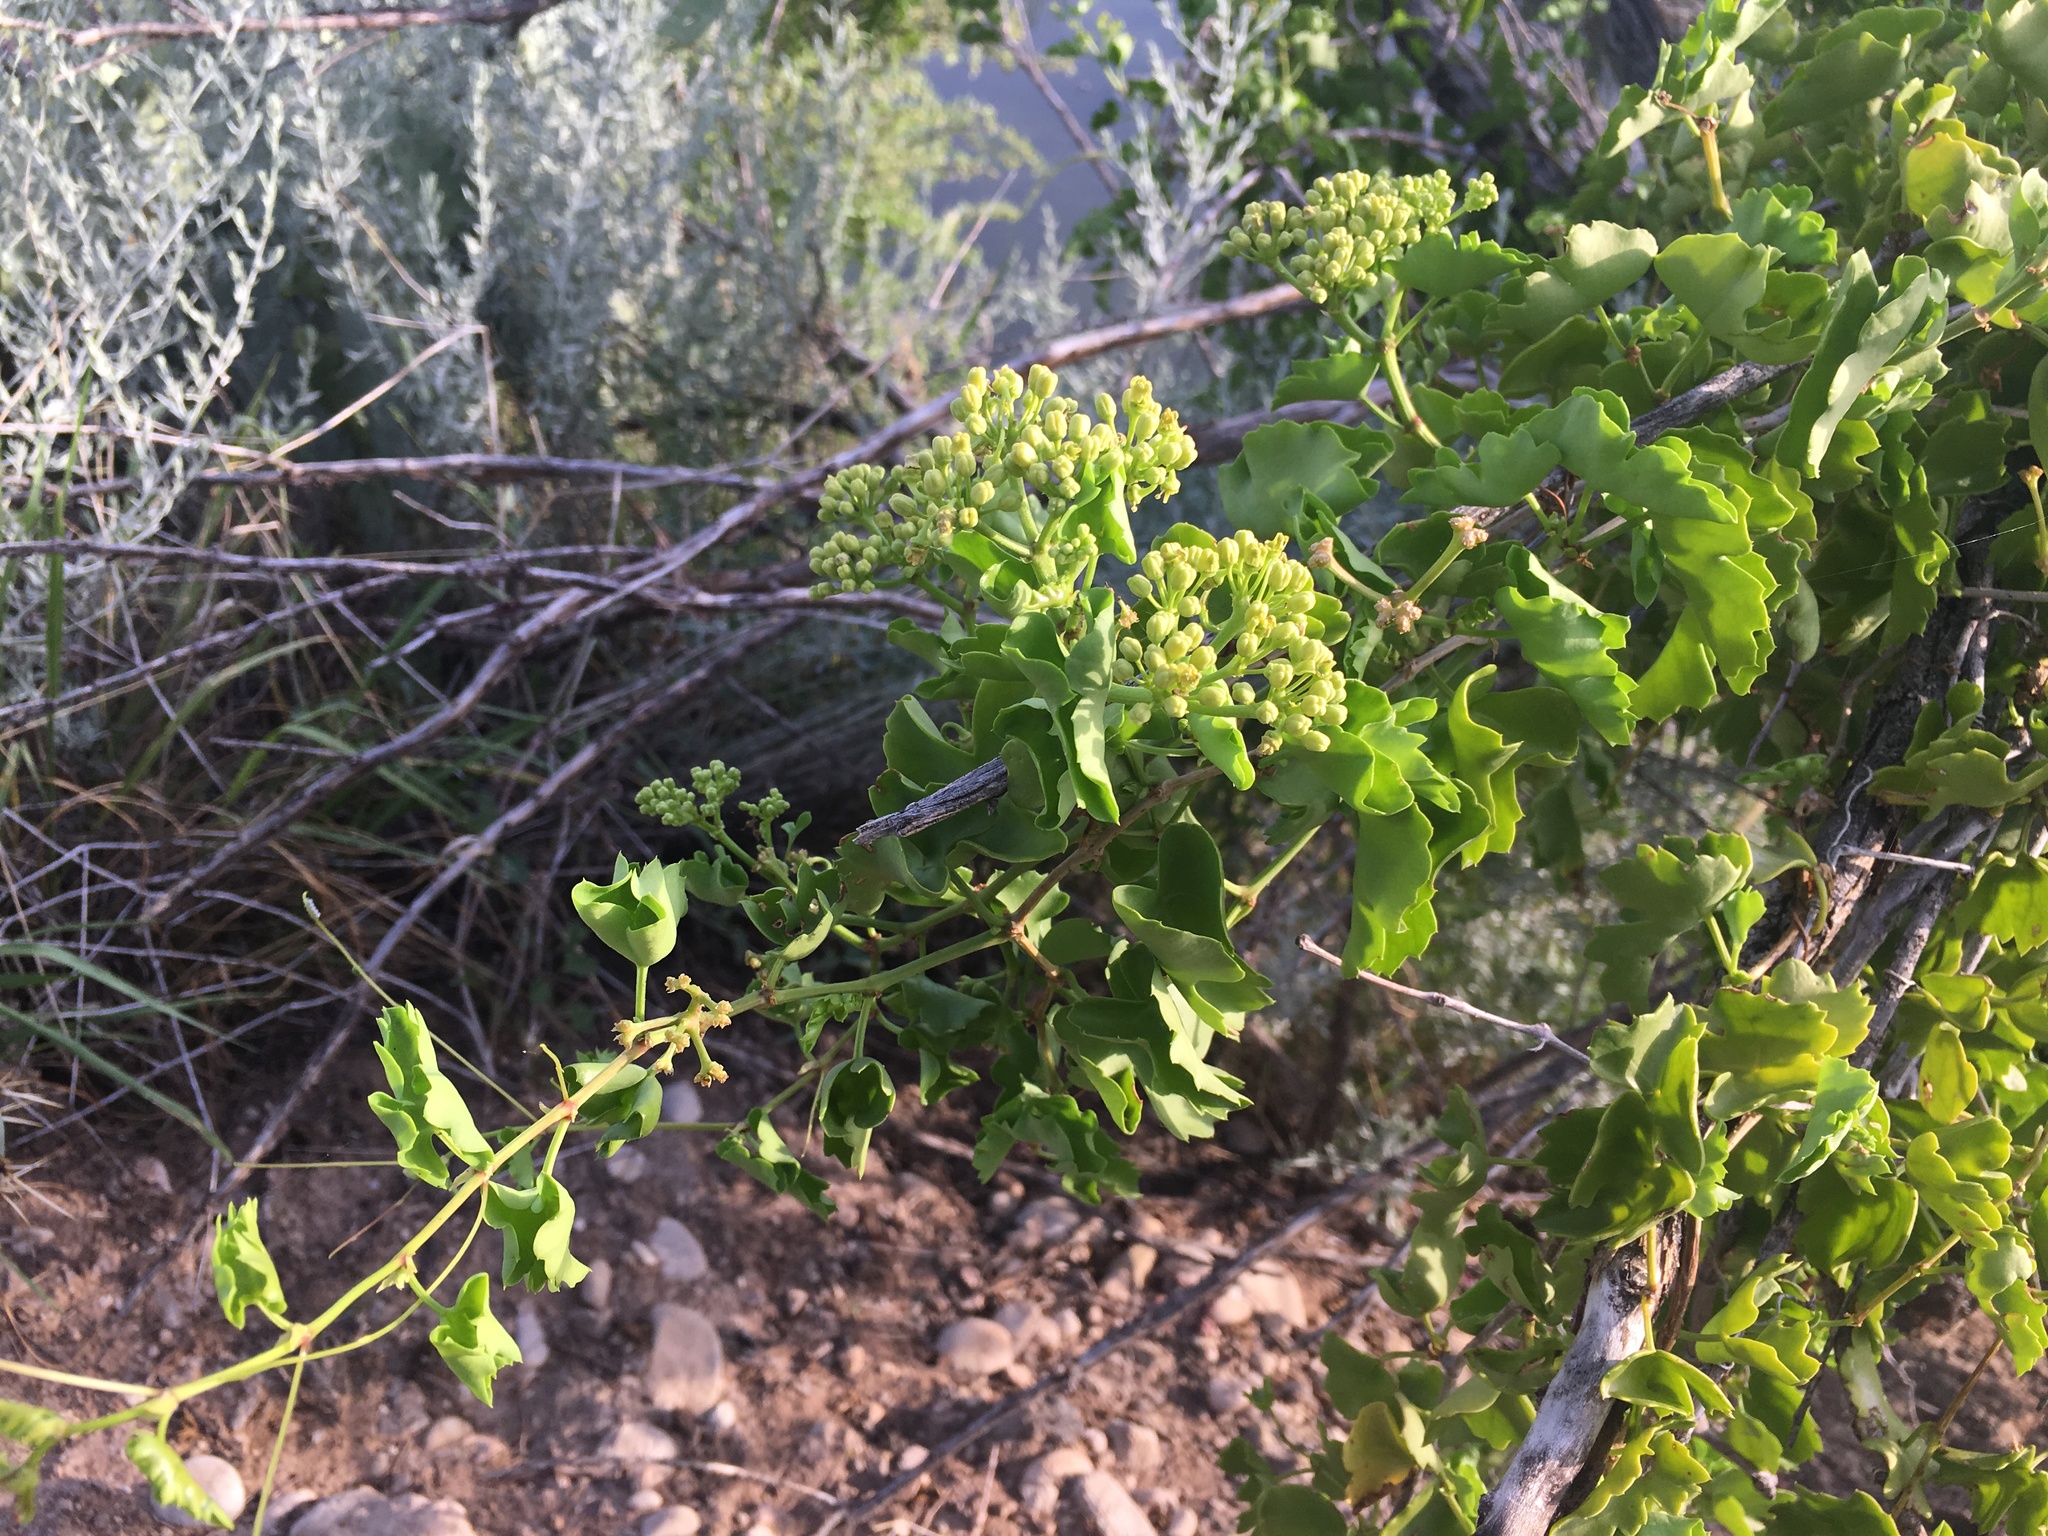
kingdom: Plantae
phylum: Tracheophyta
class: Magnoliopsida
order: Vitales
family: Vitaceae
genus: Cissus
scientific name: Cissus trifoliata
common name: Vine-sorrel
